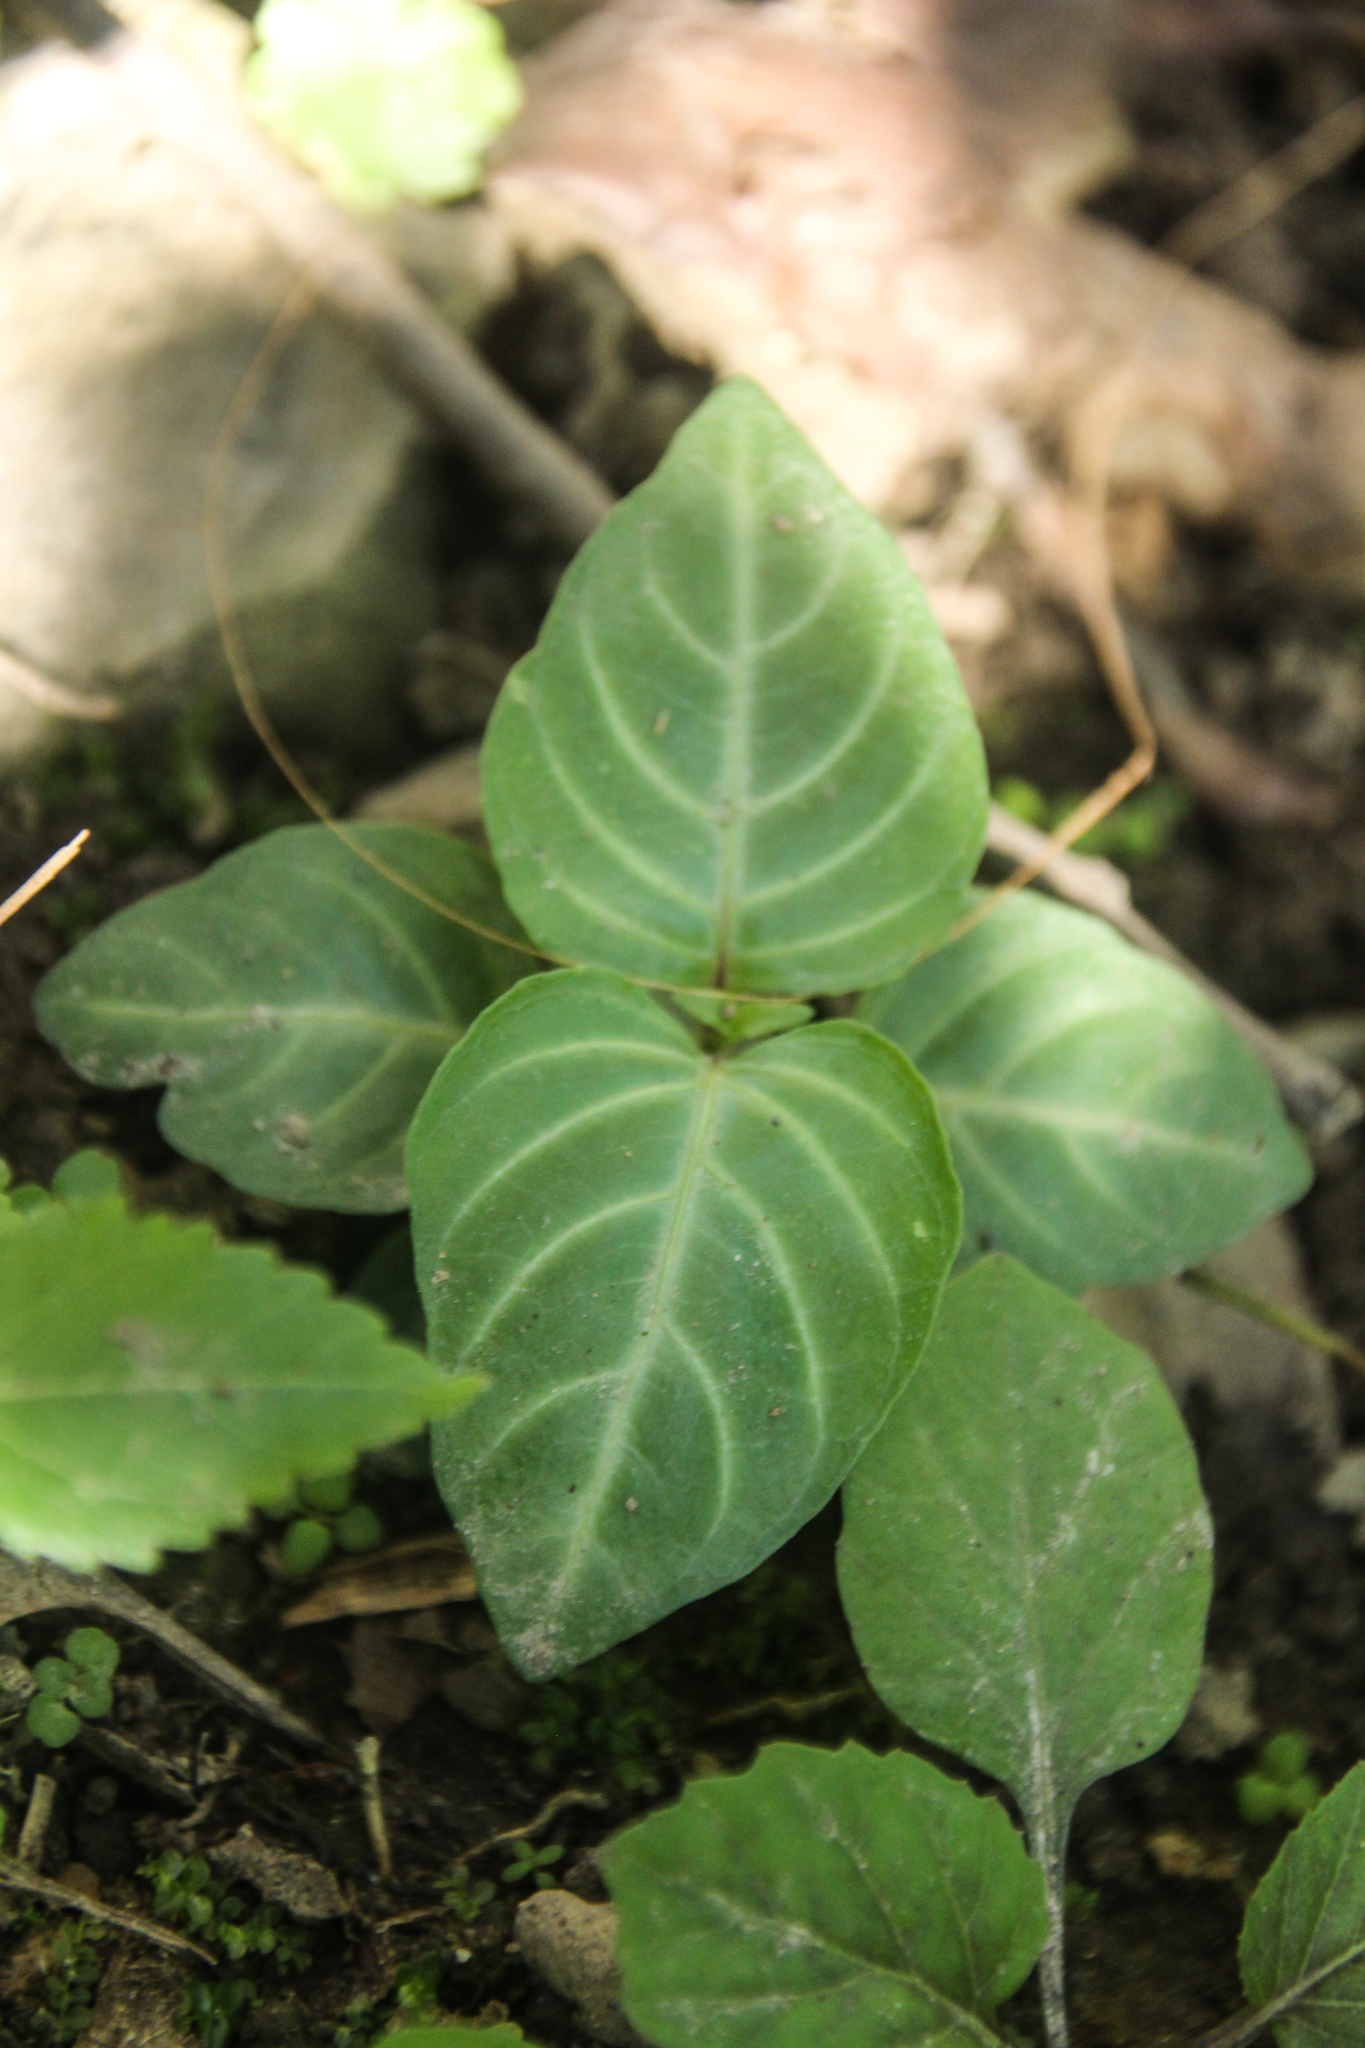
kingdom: Plantae
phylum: Tracheophyta
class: Magnoliopsida
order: Lamiales
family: Acanthaceae
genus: Lepidagathis
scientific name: Lepidagathis inaequalis
